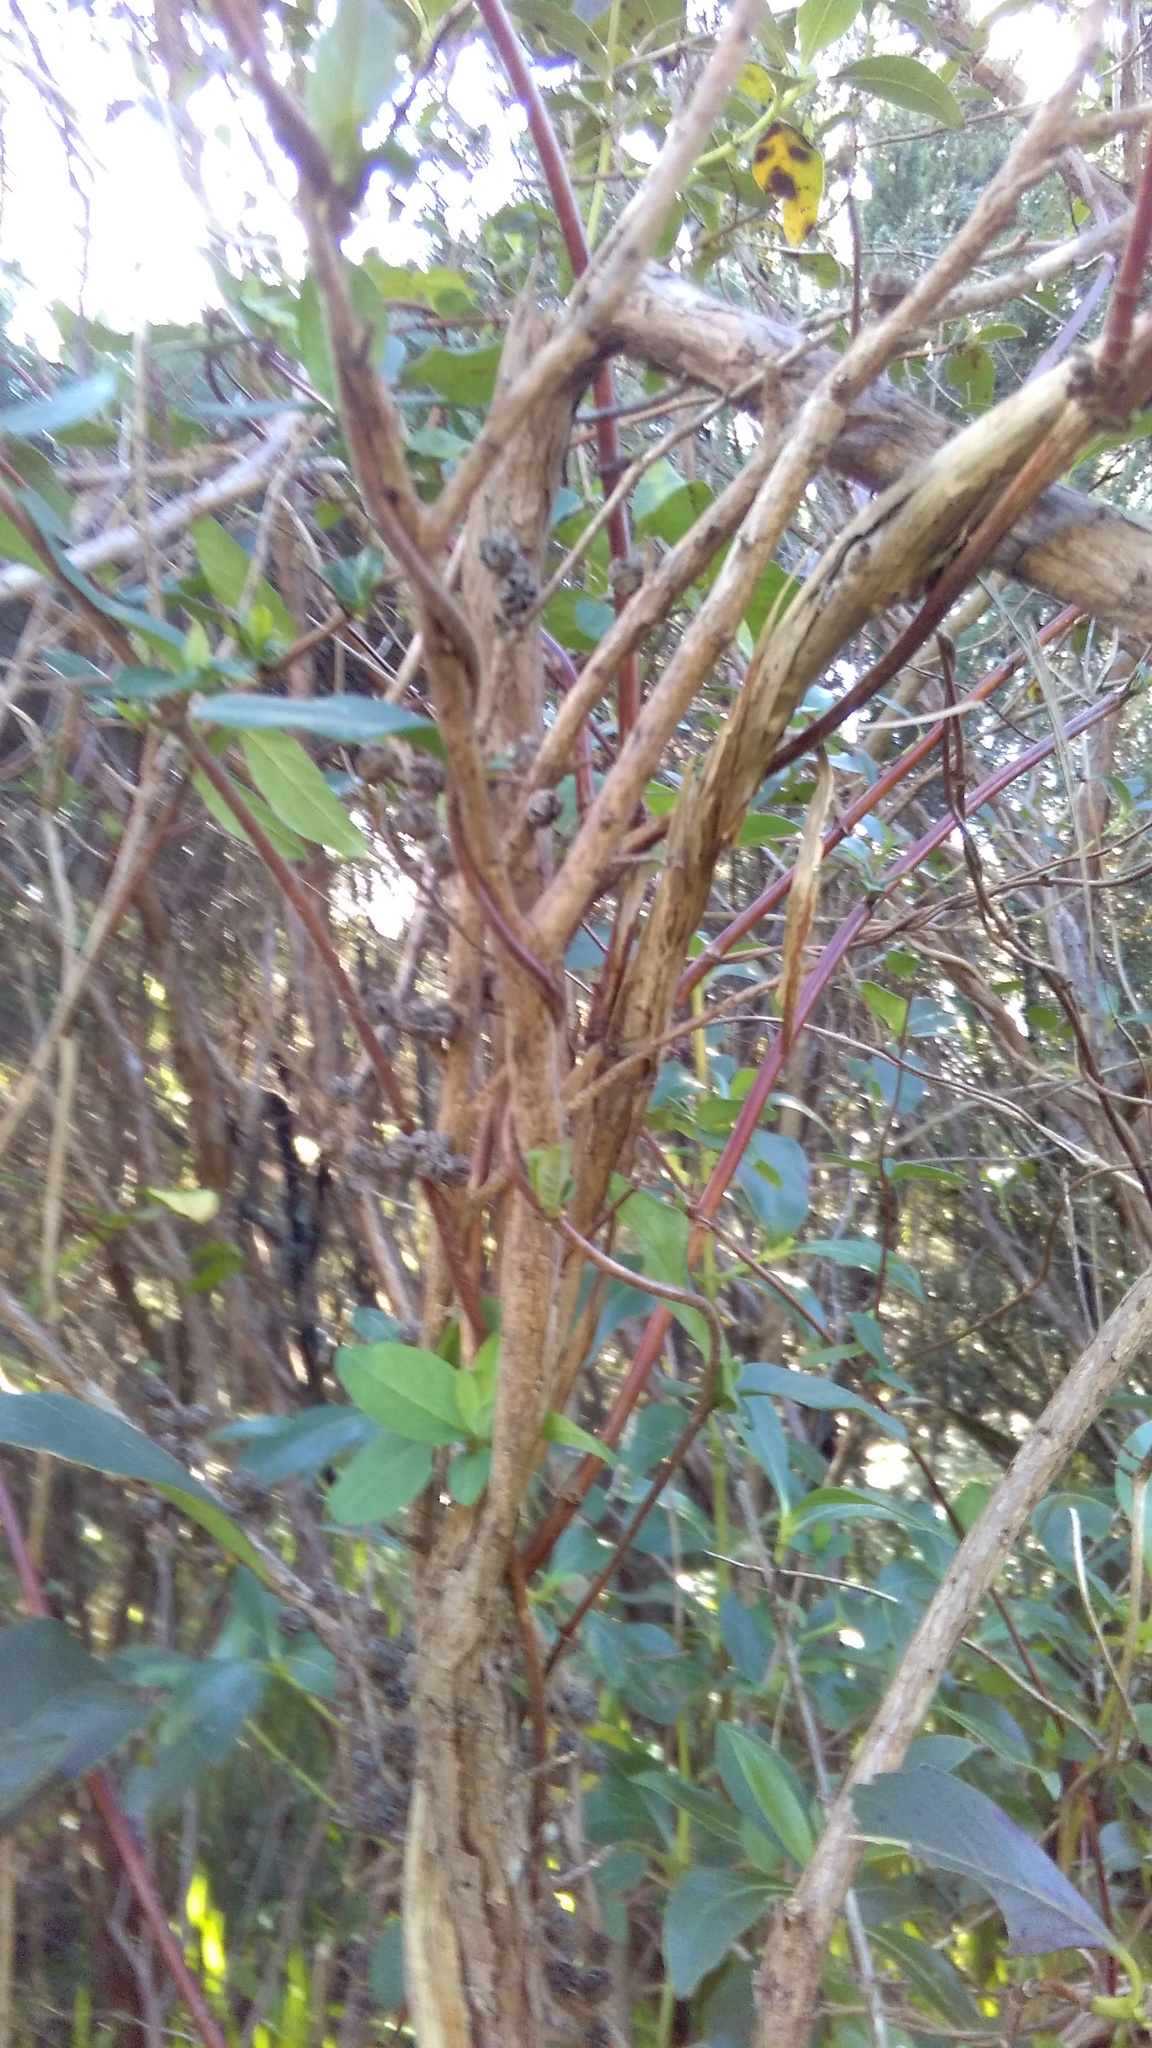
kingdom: Plantae
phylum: Tracheophyta
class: Magnoliopsida
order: Dipsacales
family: Caprifoliaceae
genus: Lonicera
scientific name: Lonicera japonica
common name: Japanese honeysuckle
